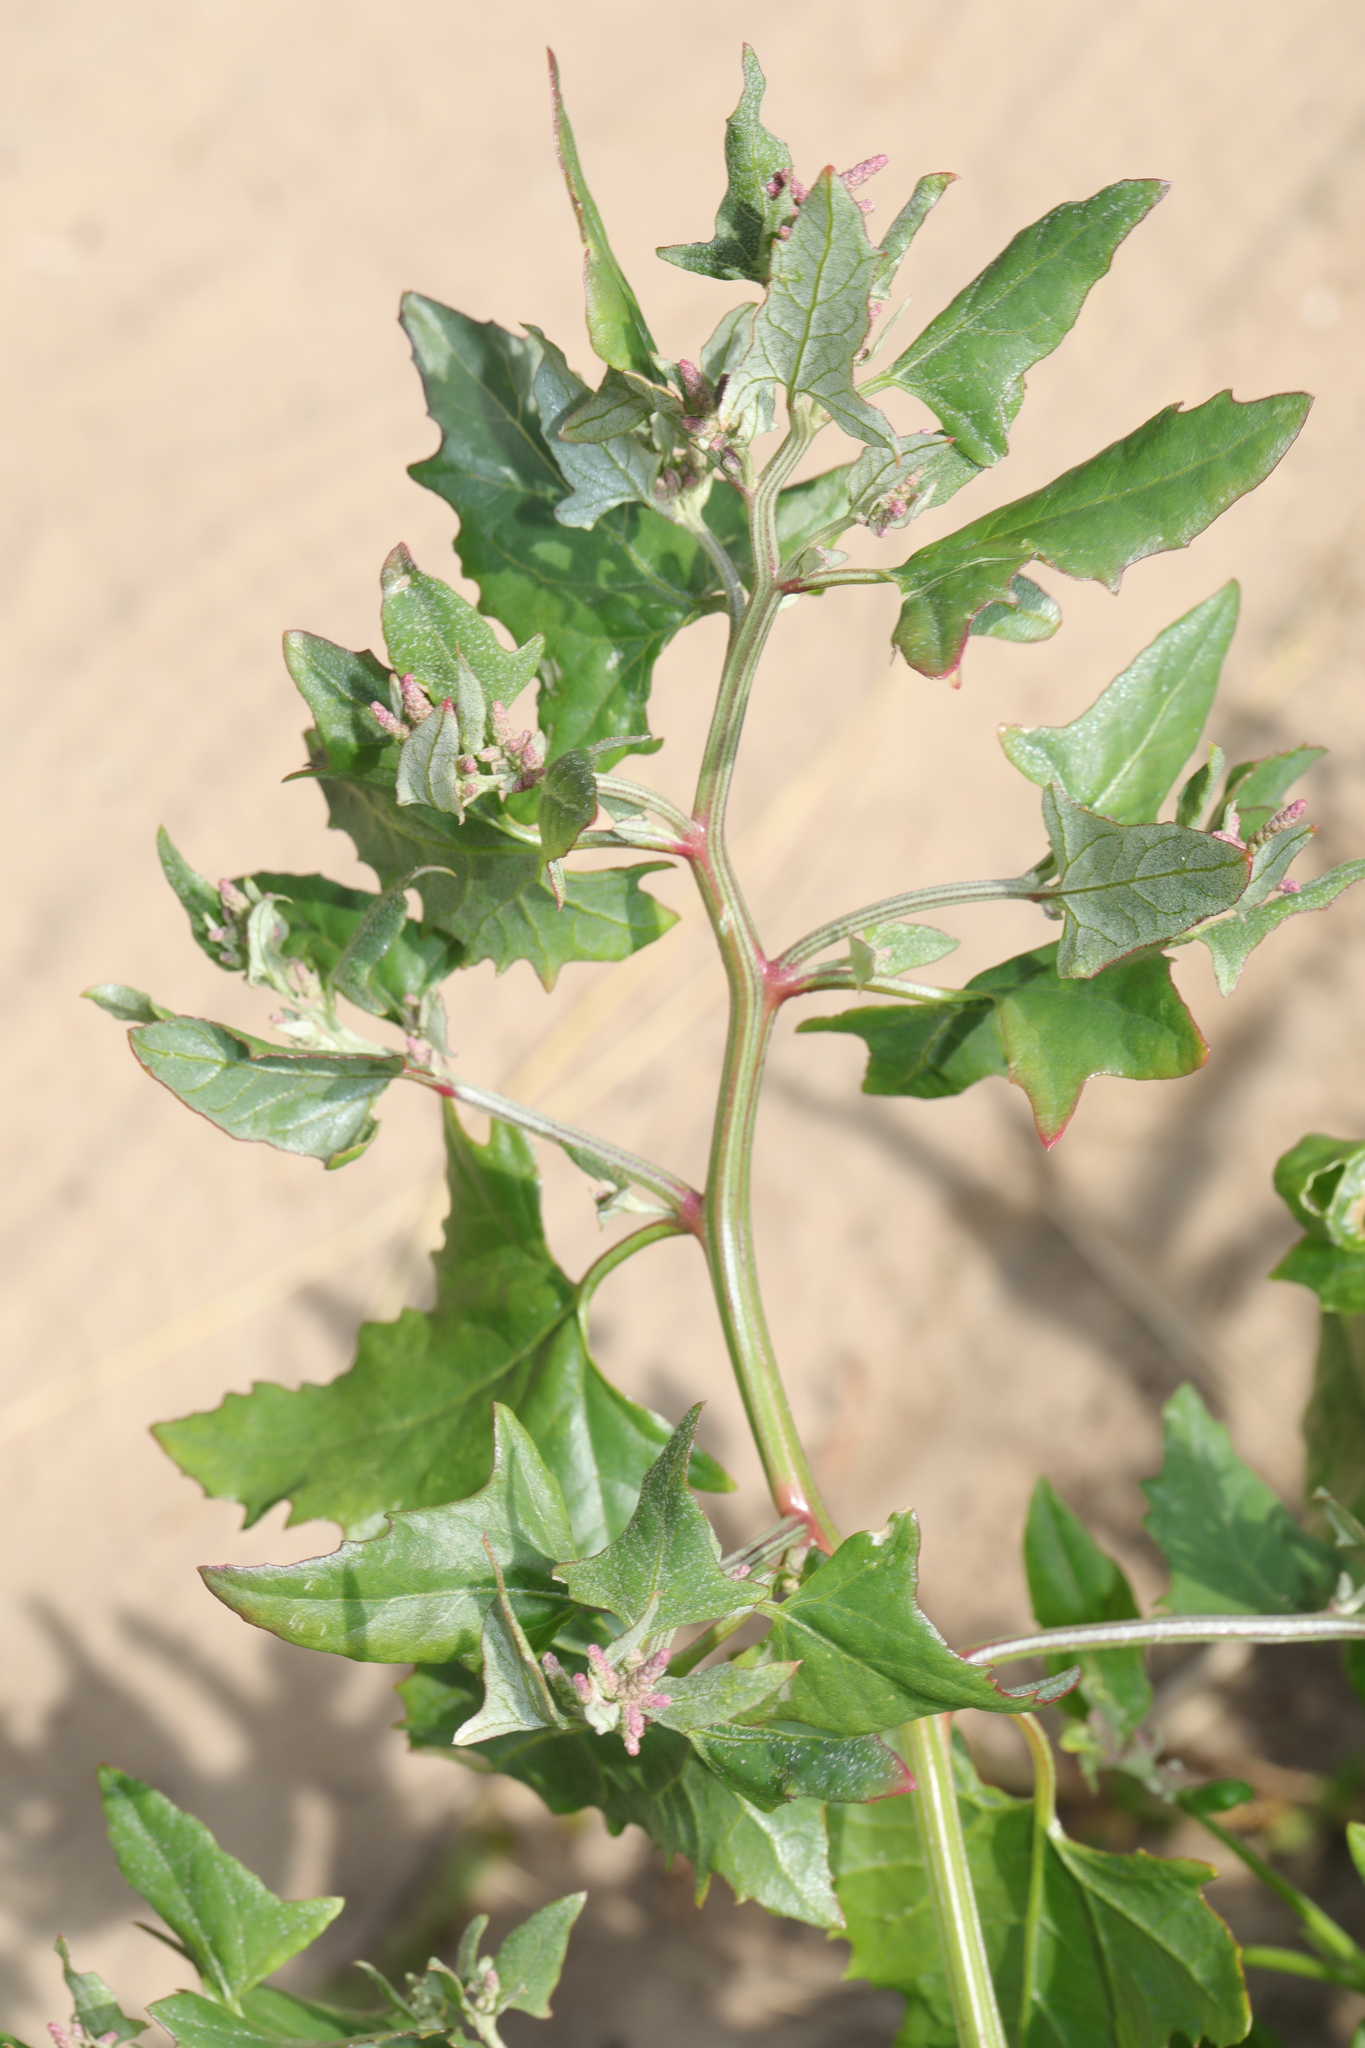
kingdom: Plantae
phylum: Tracheophyta
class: Magnoliopsida
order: Caryophyllales
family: Amaranthaceae
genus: Atriplex
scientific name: Atriplex prostrata
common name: Spear-leaved orache
